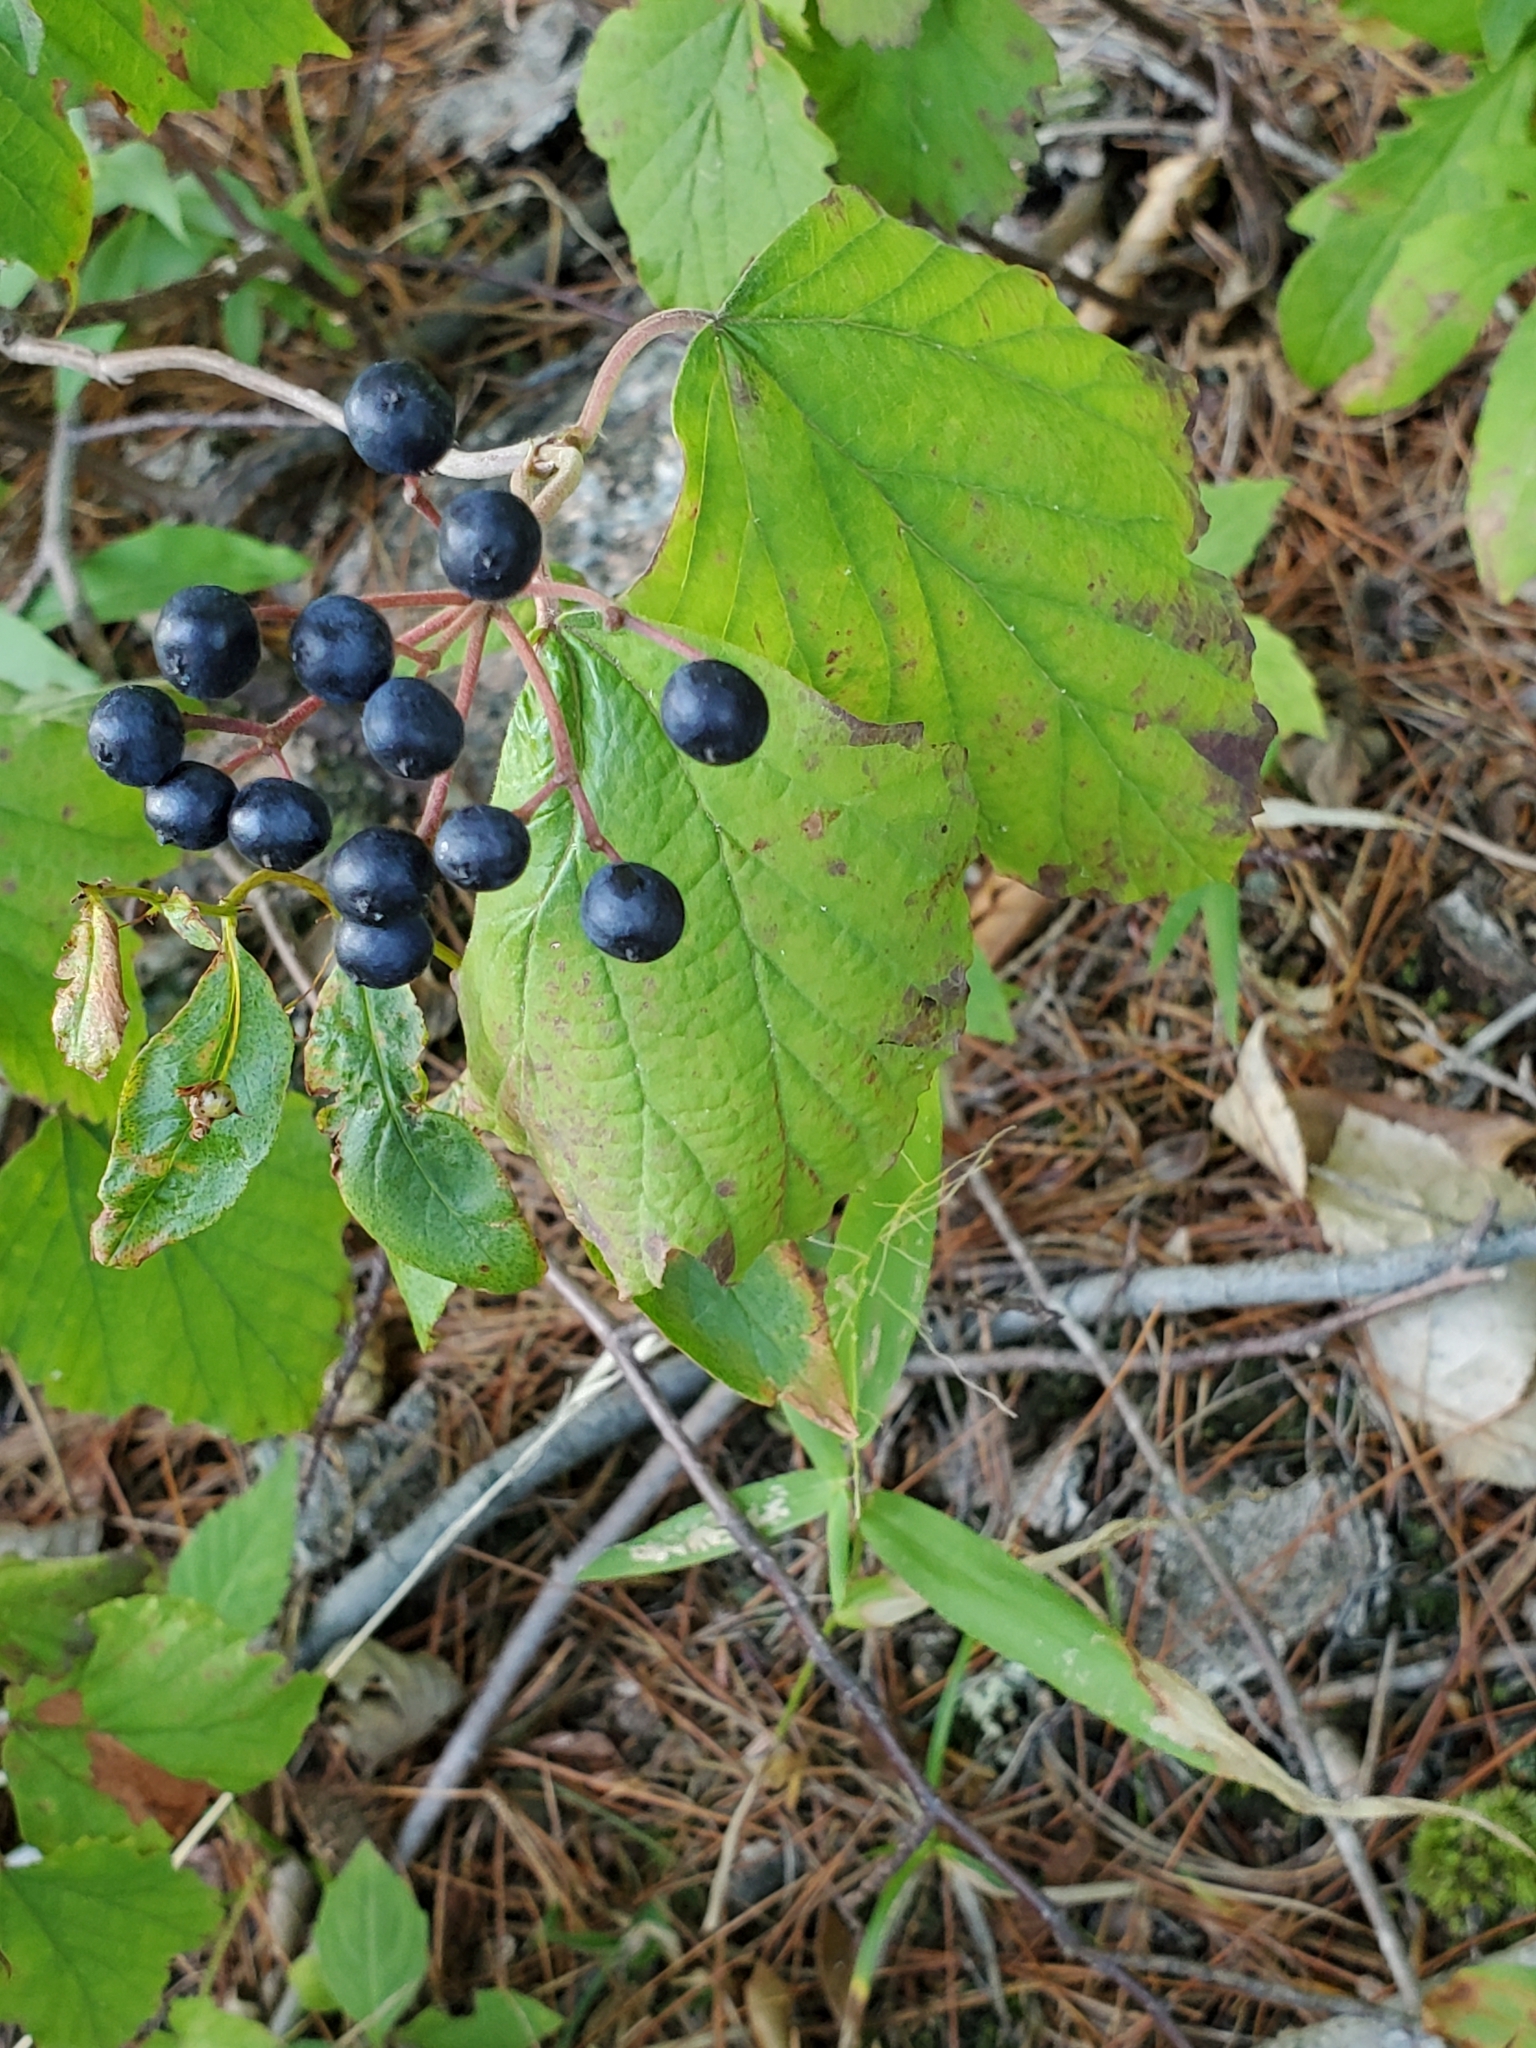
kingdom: Plantae
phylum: Tracheophyta
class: Magnoliopsida
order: Dipsacales
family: Viburnaceae
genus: Viburnum
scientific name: Viburnum acerifolium
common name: Dockmackie
